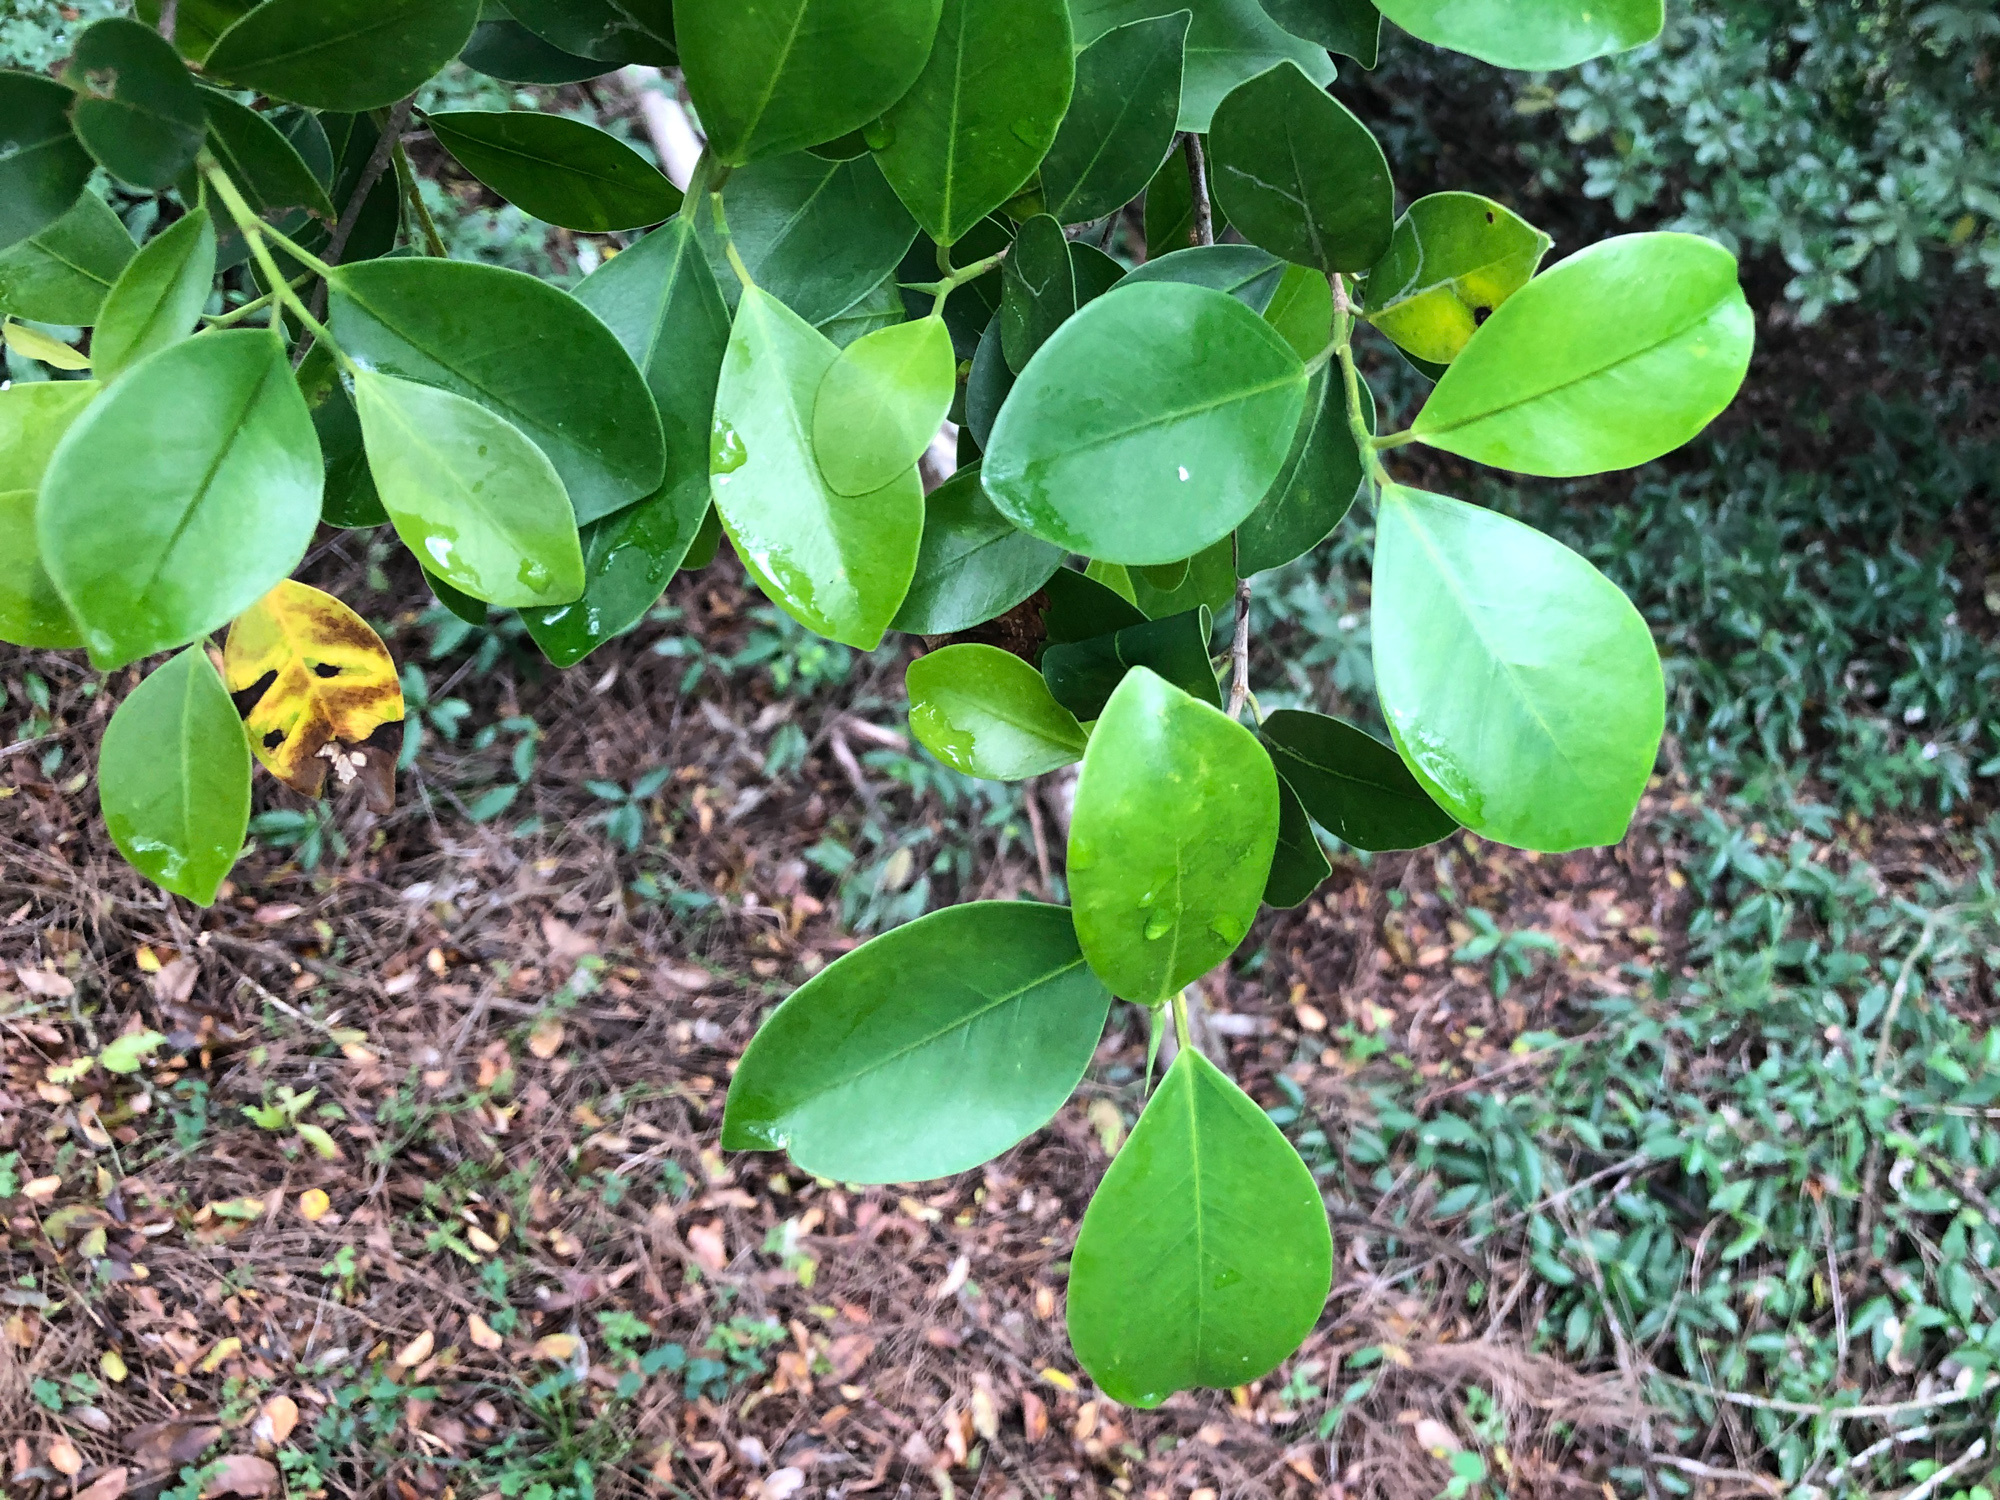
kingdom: Plantae
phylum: Tracheophyta
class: Magnoliopsida
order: Rosales
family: Moraceae
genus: Ficus
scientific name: Ficus microcarpa
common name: Chinese banyan
